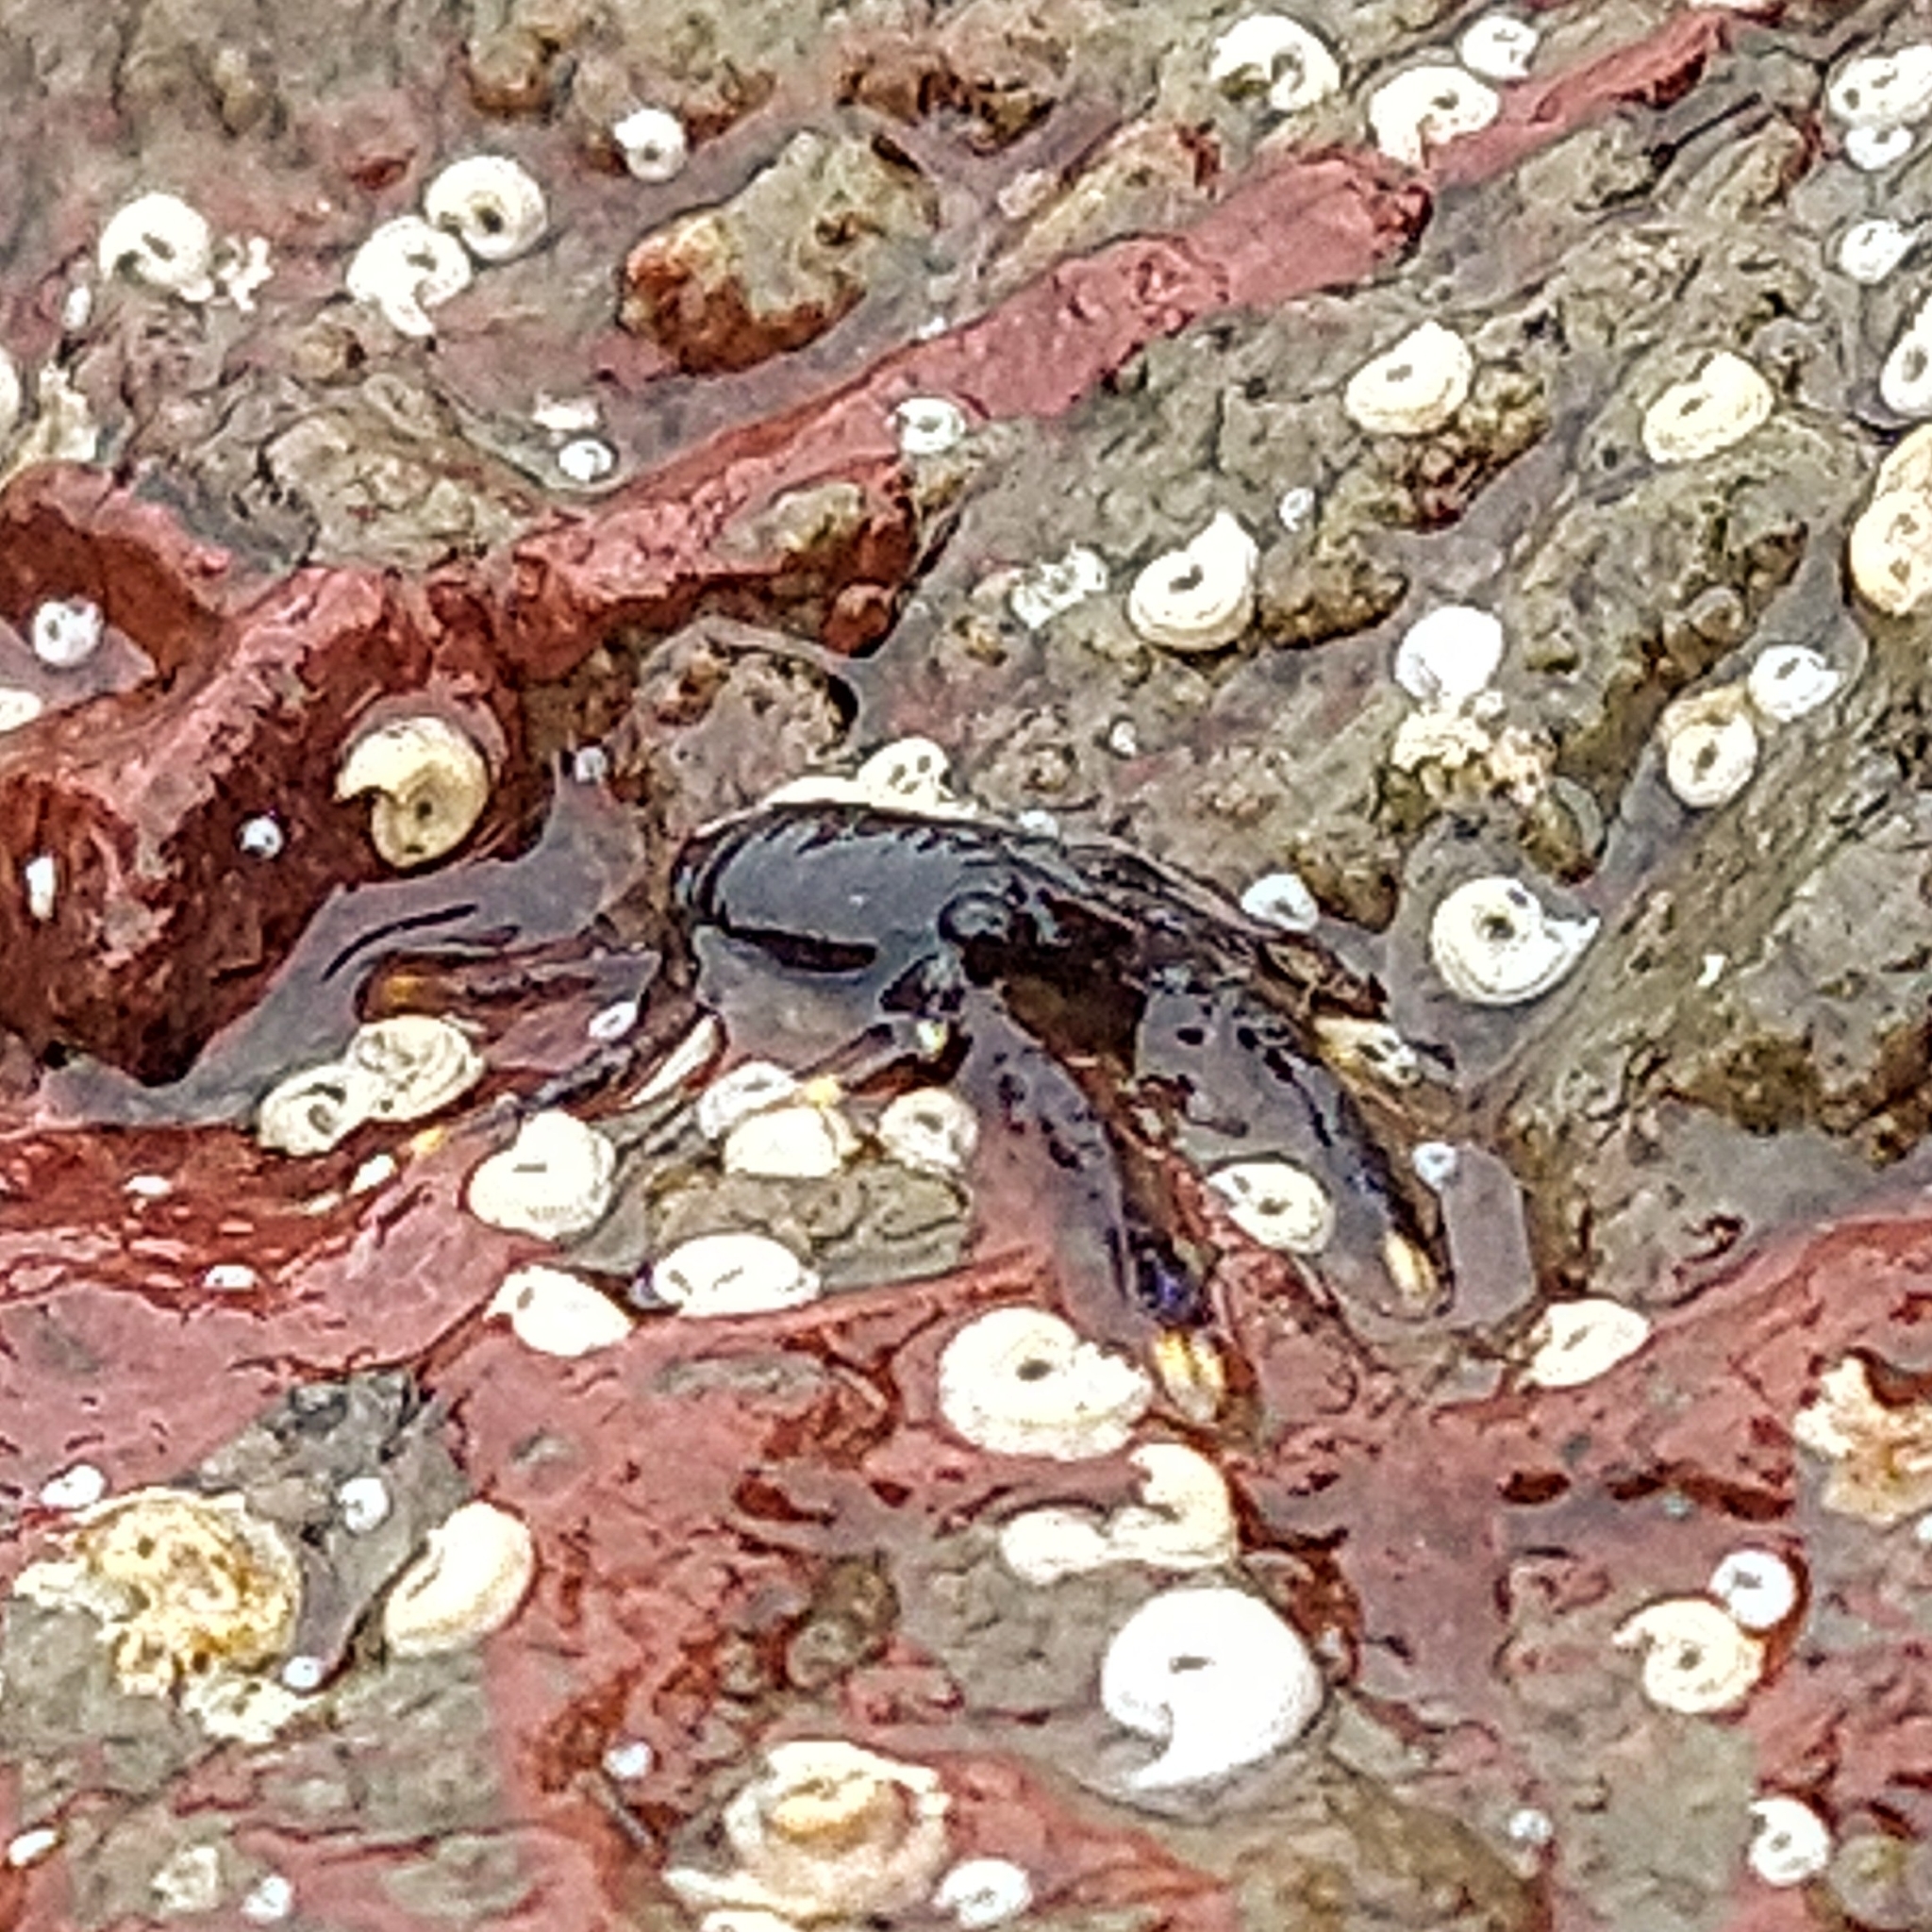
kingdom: Animalia
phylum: Arthropoda
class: Malacostraca
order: Decapoda
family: Galatheidae
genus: Galathea
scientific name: Galathea squamifera
